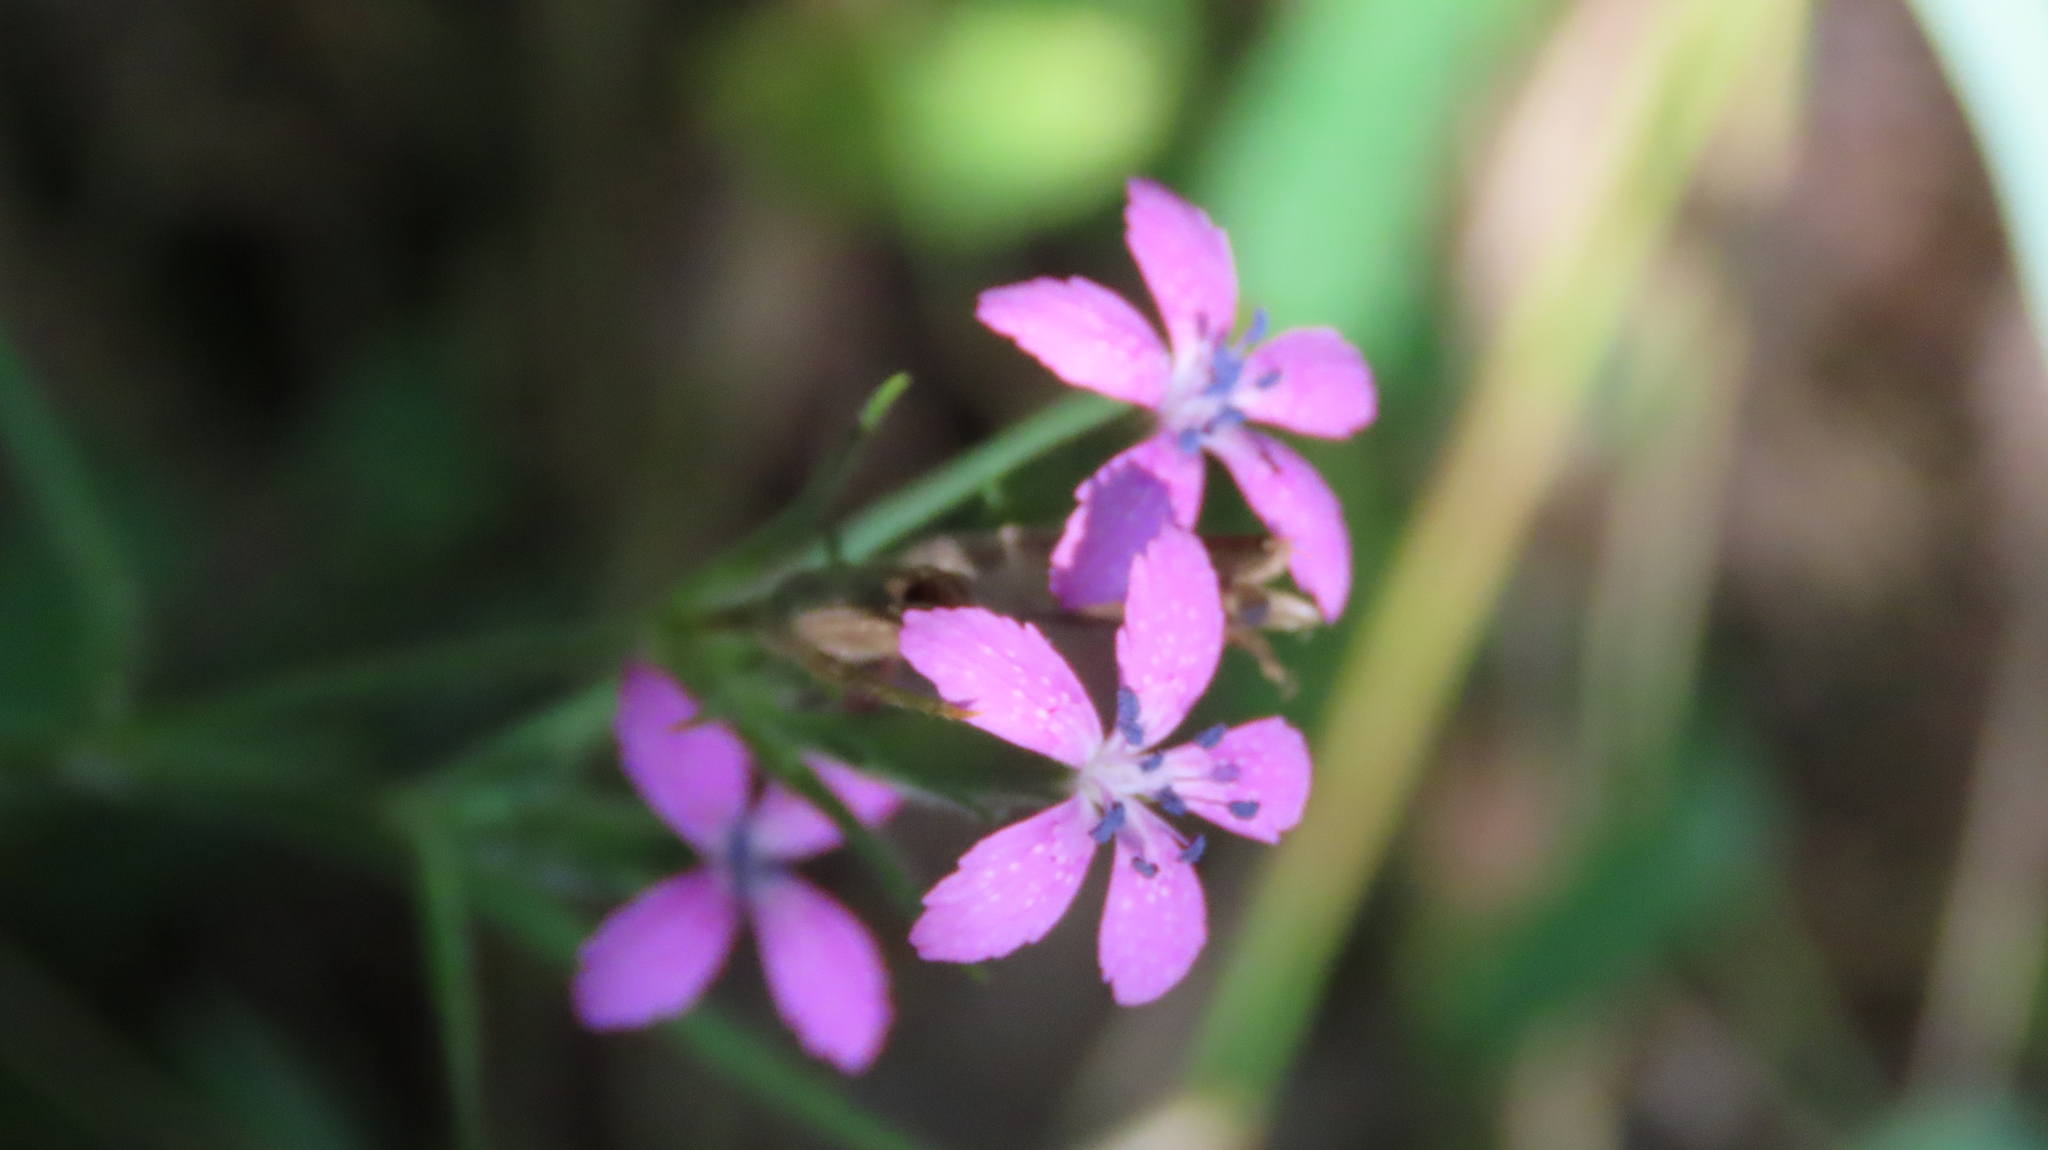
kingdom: Plantae
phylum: Tracheophyta
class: Magnoliopsida
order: Caryophyllales
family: Caryophyllaceae
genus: Dianthus
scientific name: Dianthus armeria
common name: Deptford pink
